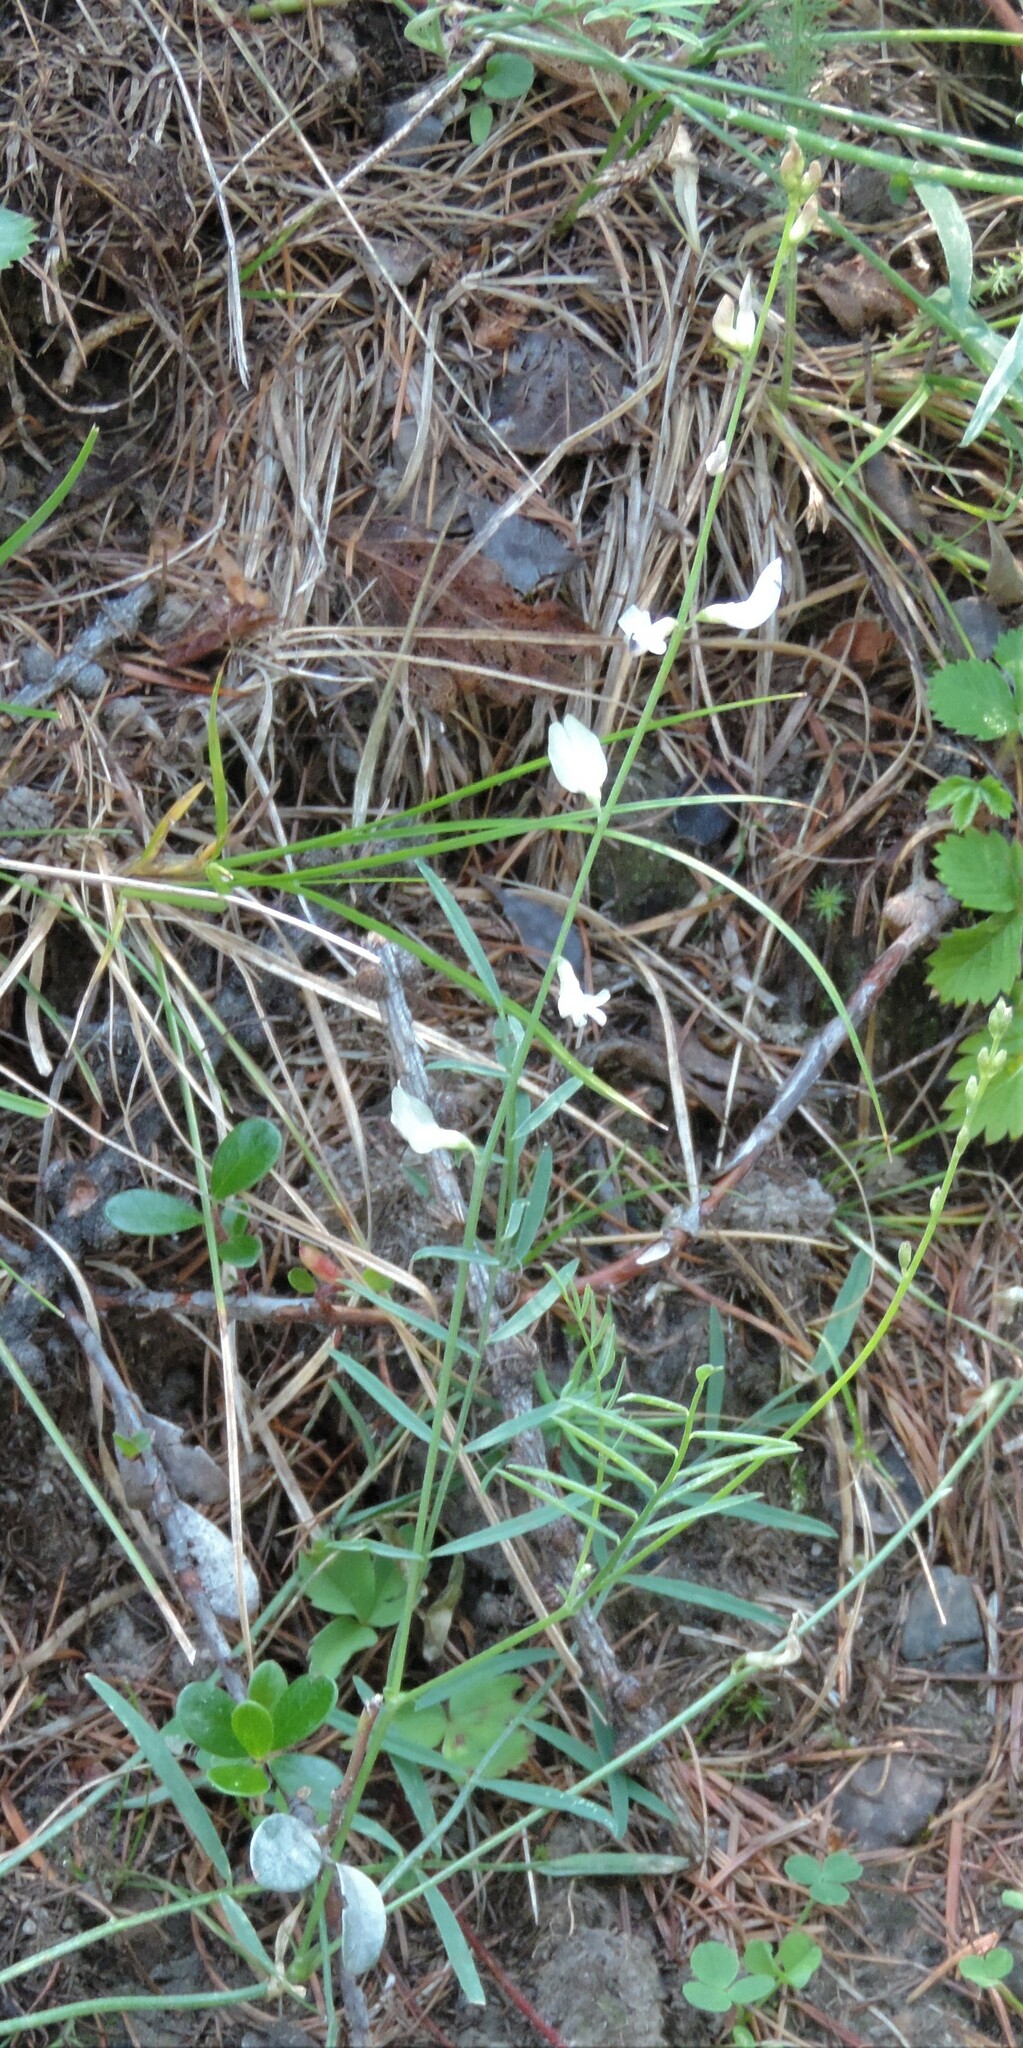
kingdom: Plantae
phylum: Tracheophyta
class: Magnoliopsida
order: Fabales
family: Fabaceae
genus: Astragalus
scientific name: Astragalus miser
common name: Timber milkvetch
